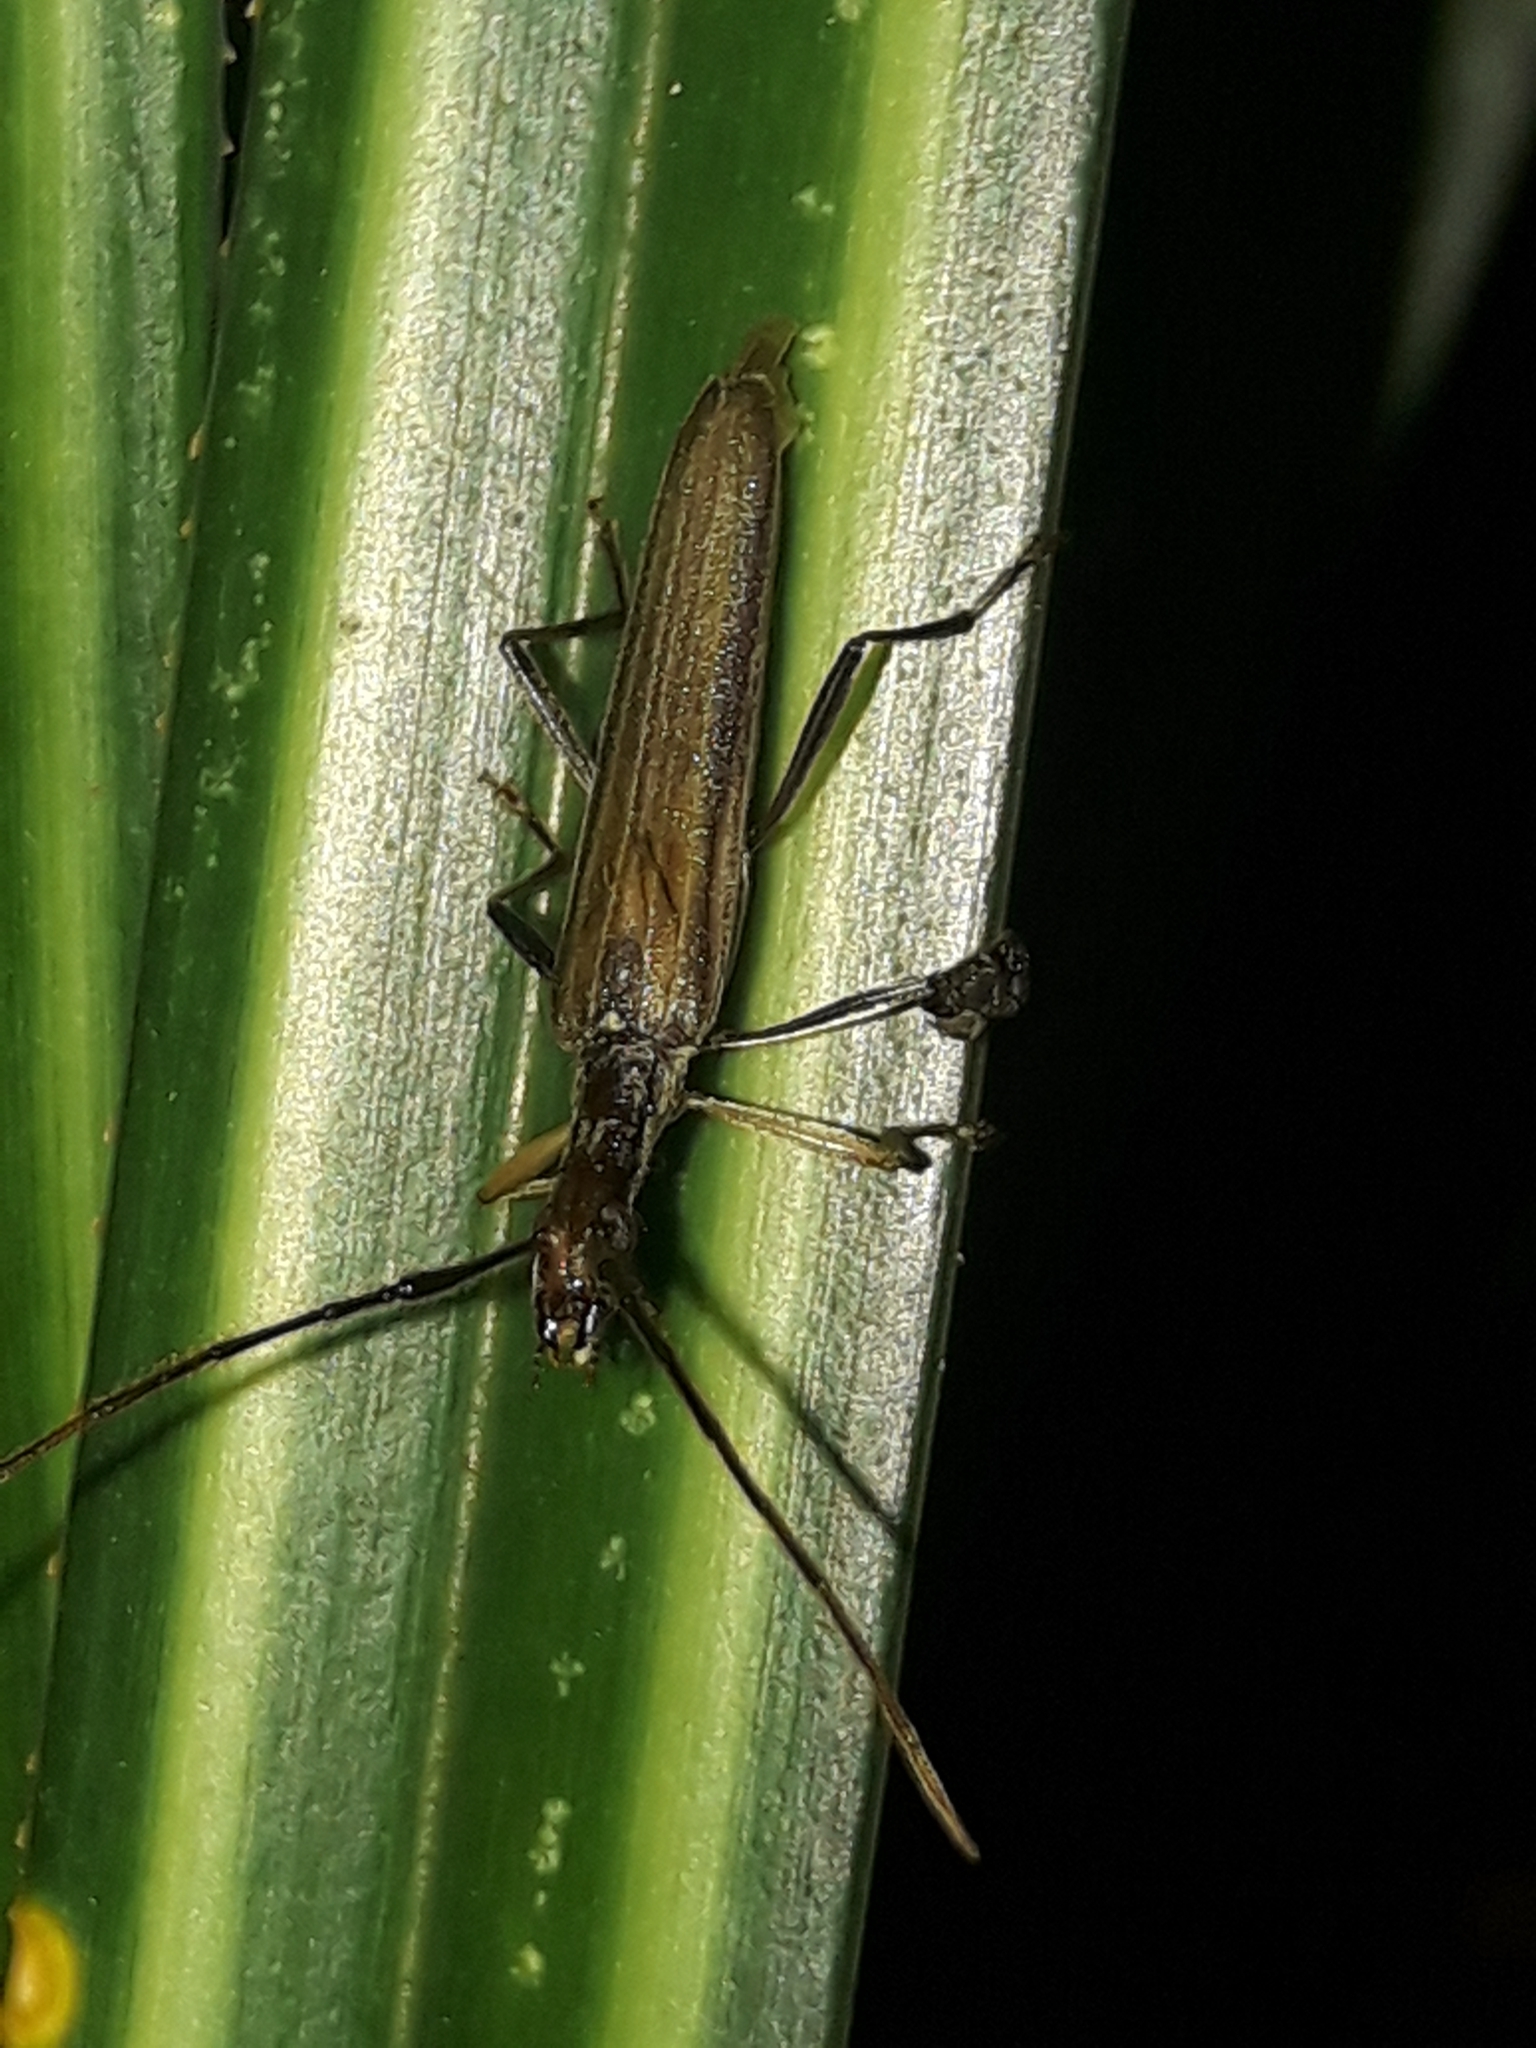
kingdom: Animalia
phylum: Arthropoda
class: Insecta
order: Coleoptera
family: Cerambycidae
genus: Stenopotes
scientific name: Stenopotes pallidus
